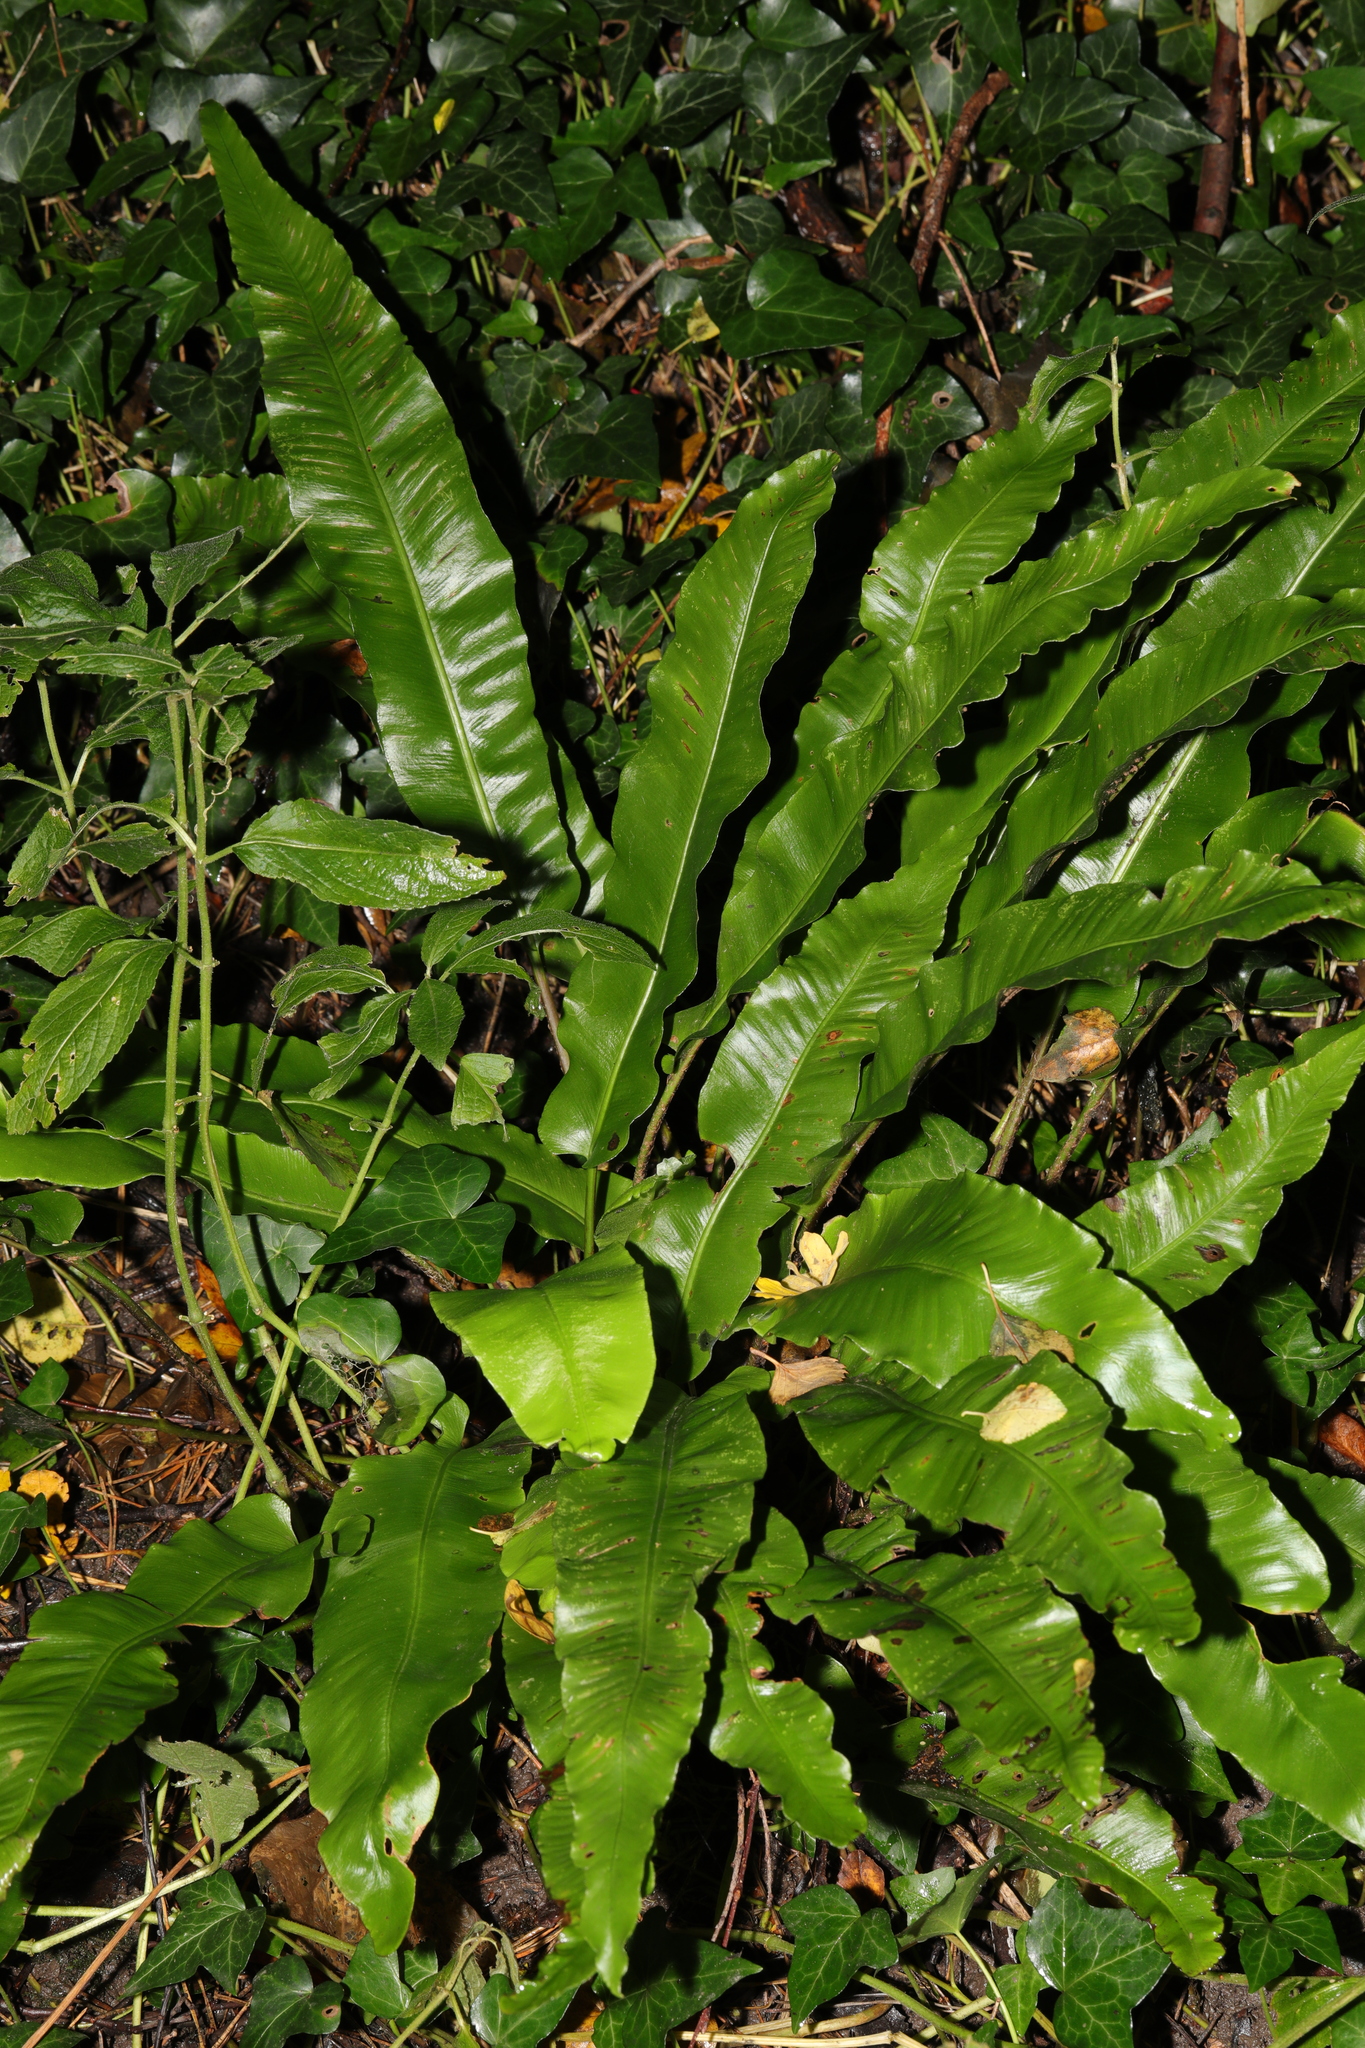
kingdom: Plantae
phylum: Tracheophyta
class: Polypodiopsida
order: Polypodiales
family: Aspleniaceae
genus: Asplenium
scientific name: Asplenium scolopendrium
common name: Hart's-tongue fern
